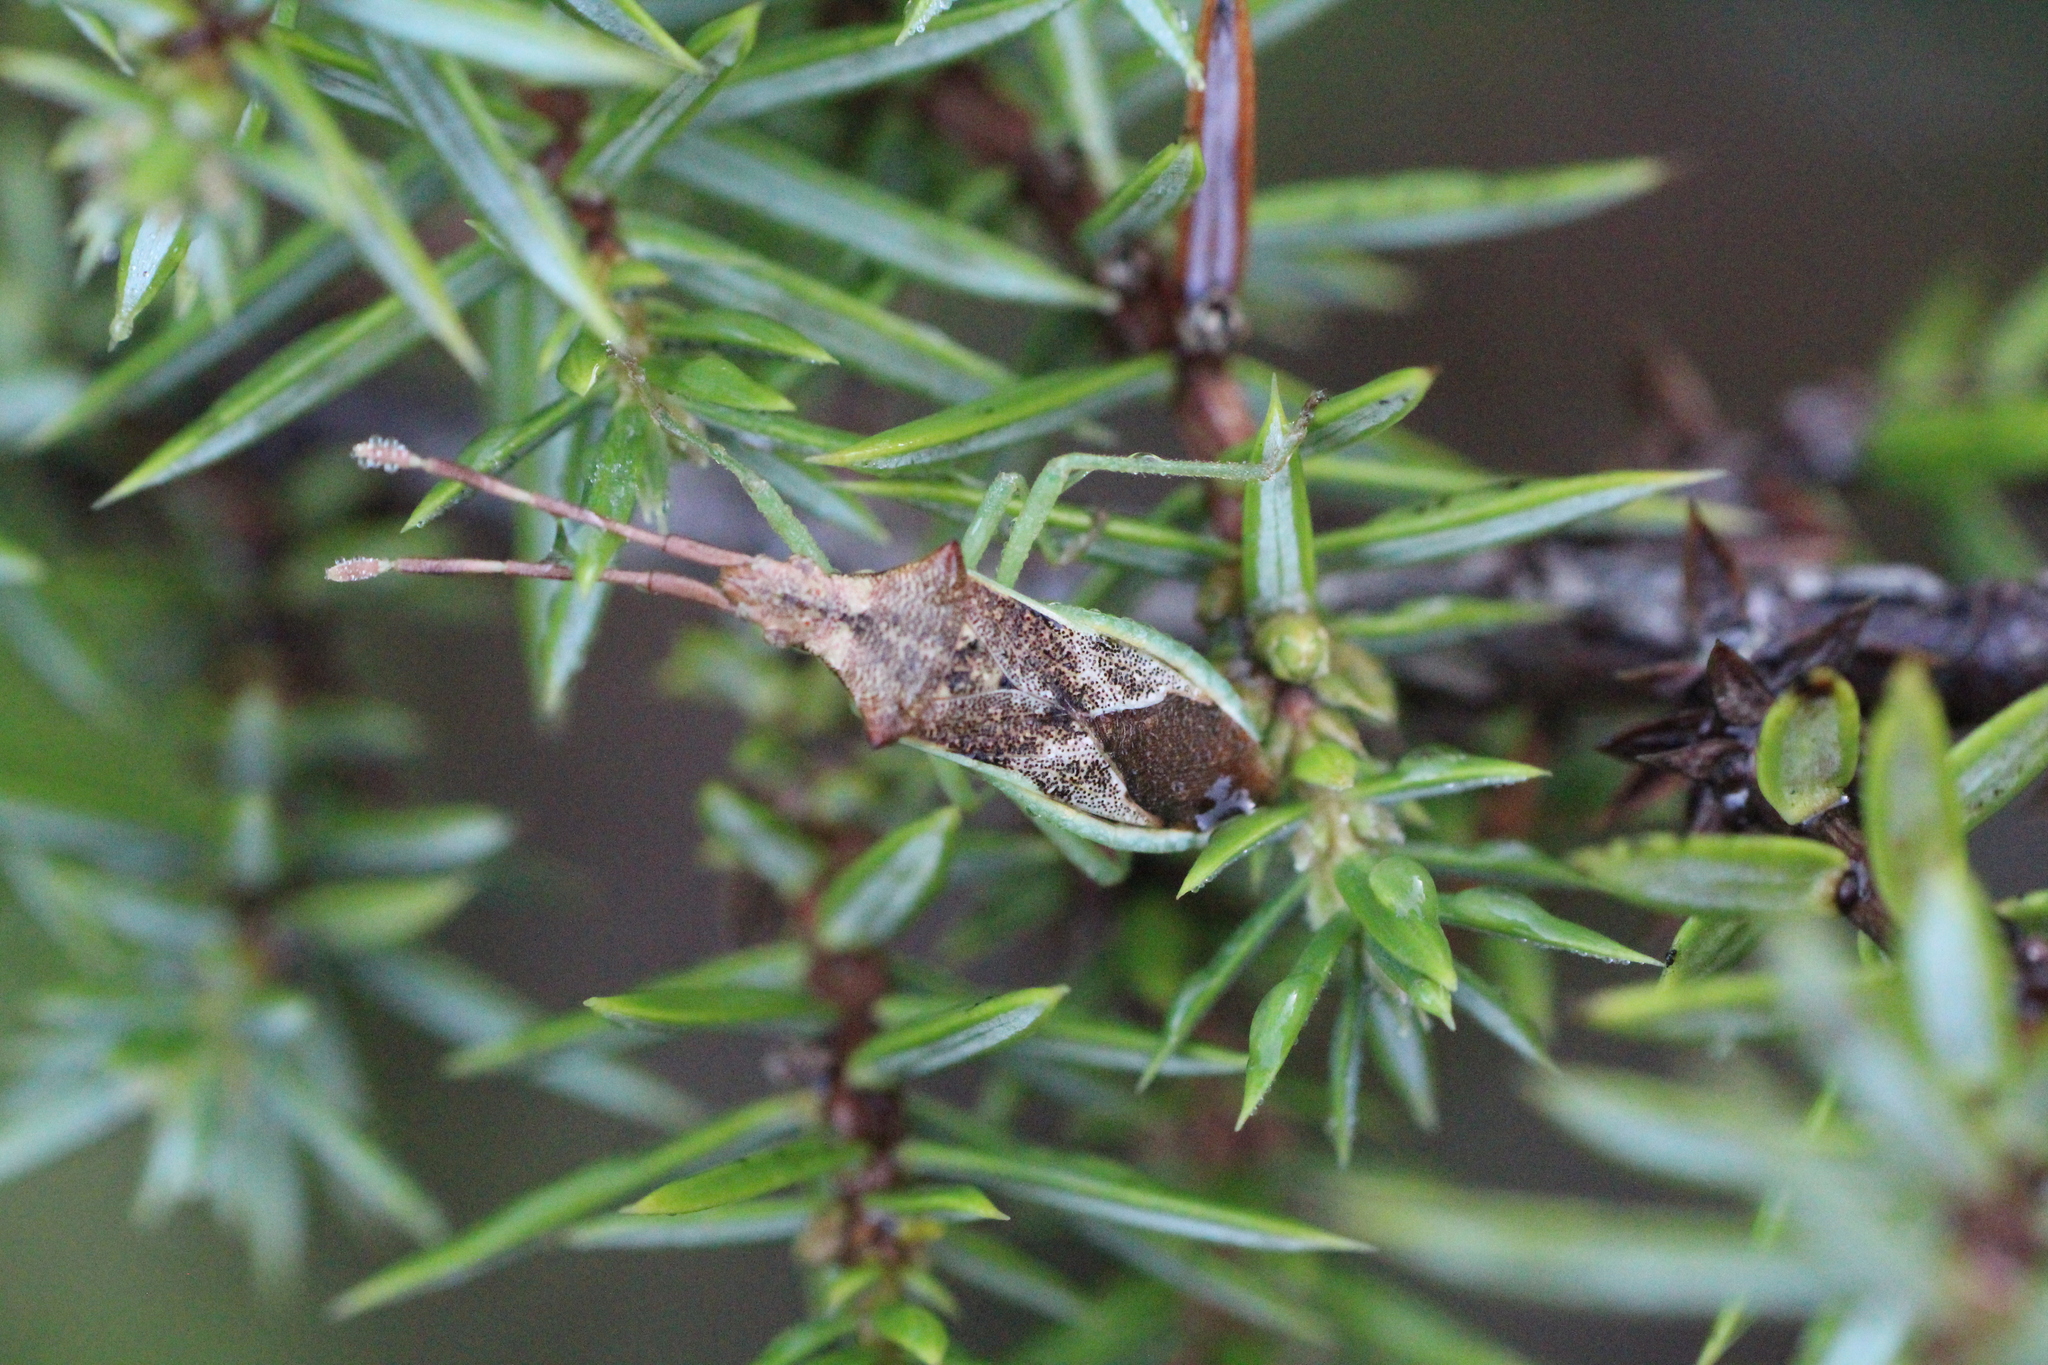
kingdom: Animalia
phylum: Arthropoda
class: Insecta
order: Hemiptera
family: Coreidae
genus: Gonocerus
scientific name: Gonocerus juniperi
